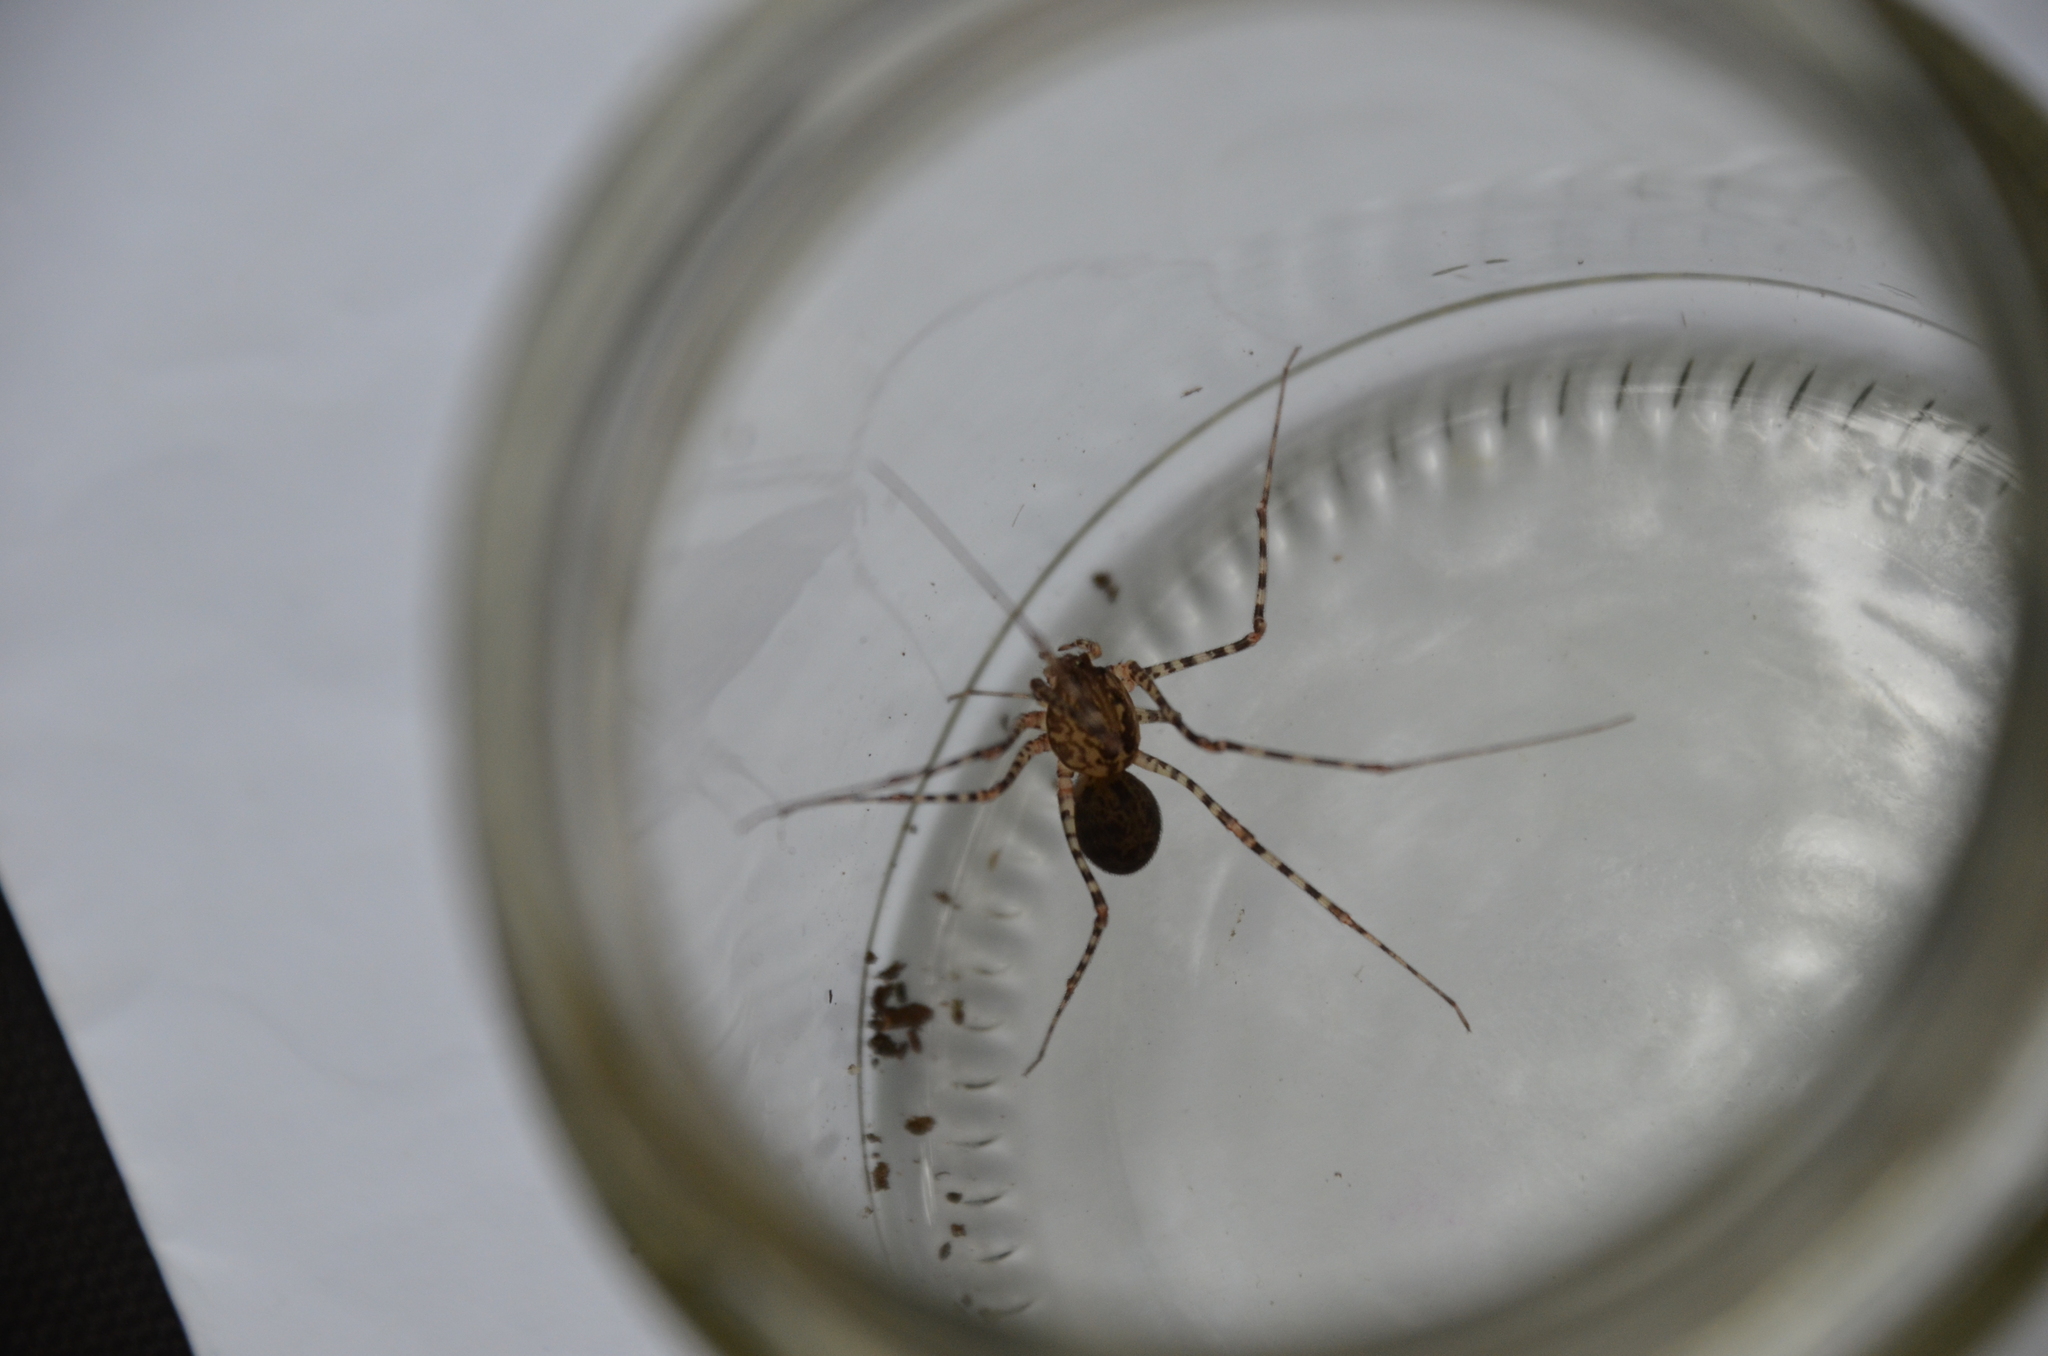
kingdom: Animalia
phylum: Arthropoda
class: Arachnida
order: Araneae
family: Scytodidae
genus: Scytodes
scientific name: Scytodes globula
